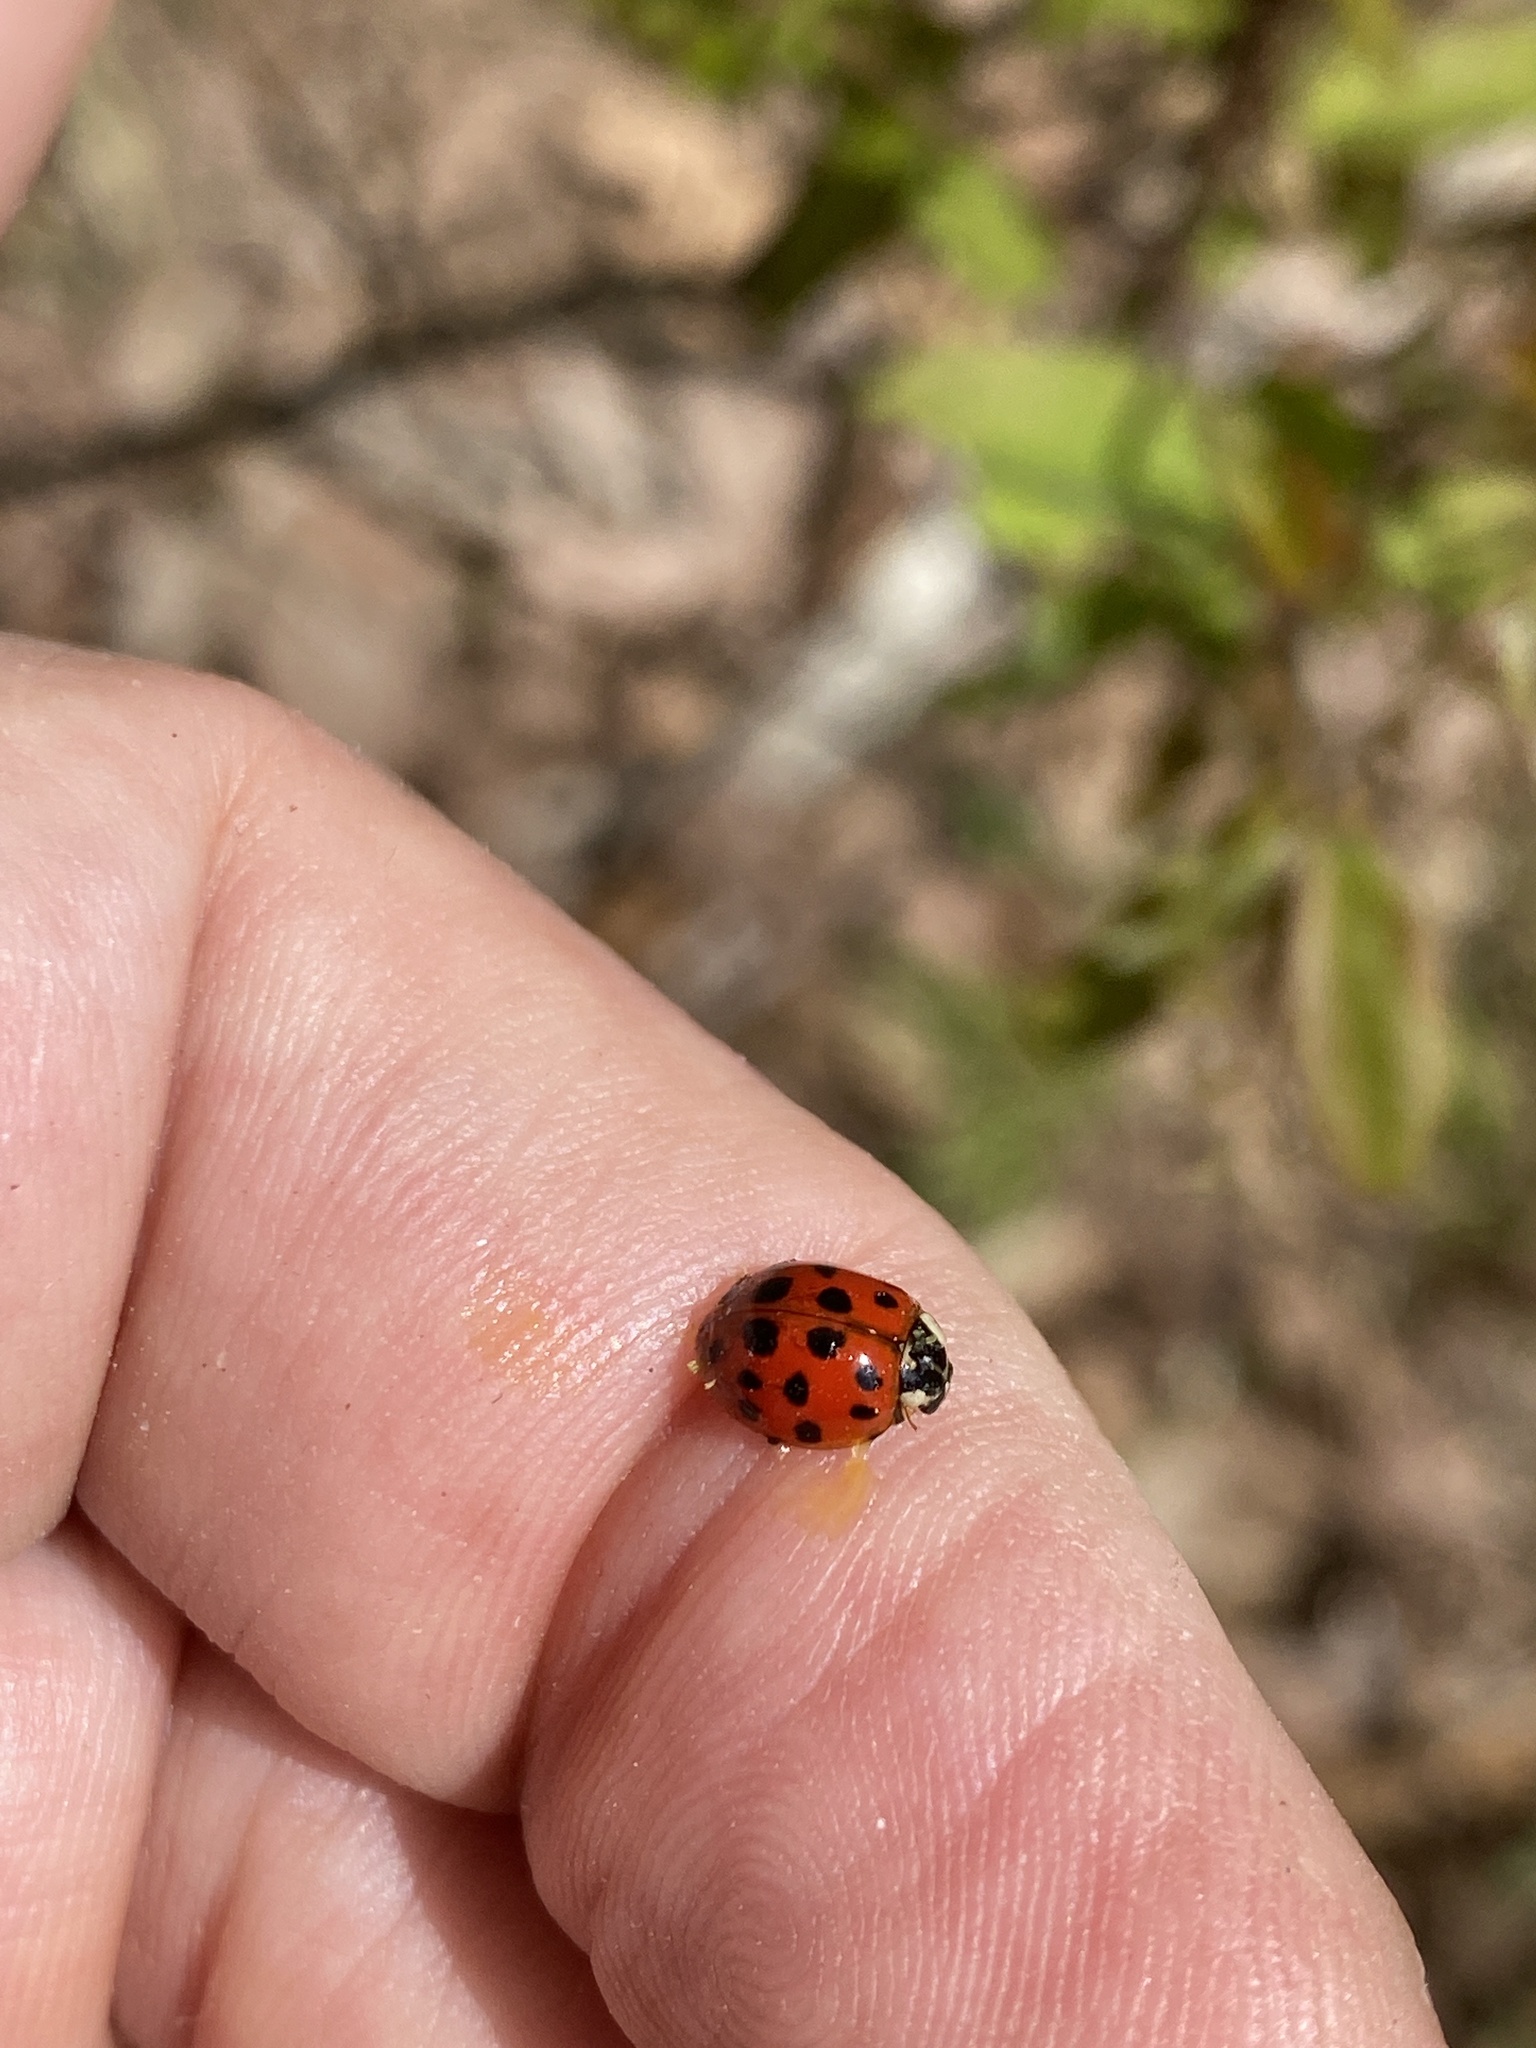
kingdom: Animalia
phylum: Arthropoda
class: Insecta
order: Coleoptera
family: Coccinellidae
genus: Harmonia
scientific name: Harmonia axyridis
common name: Harlequin ladybird
